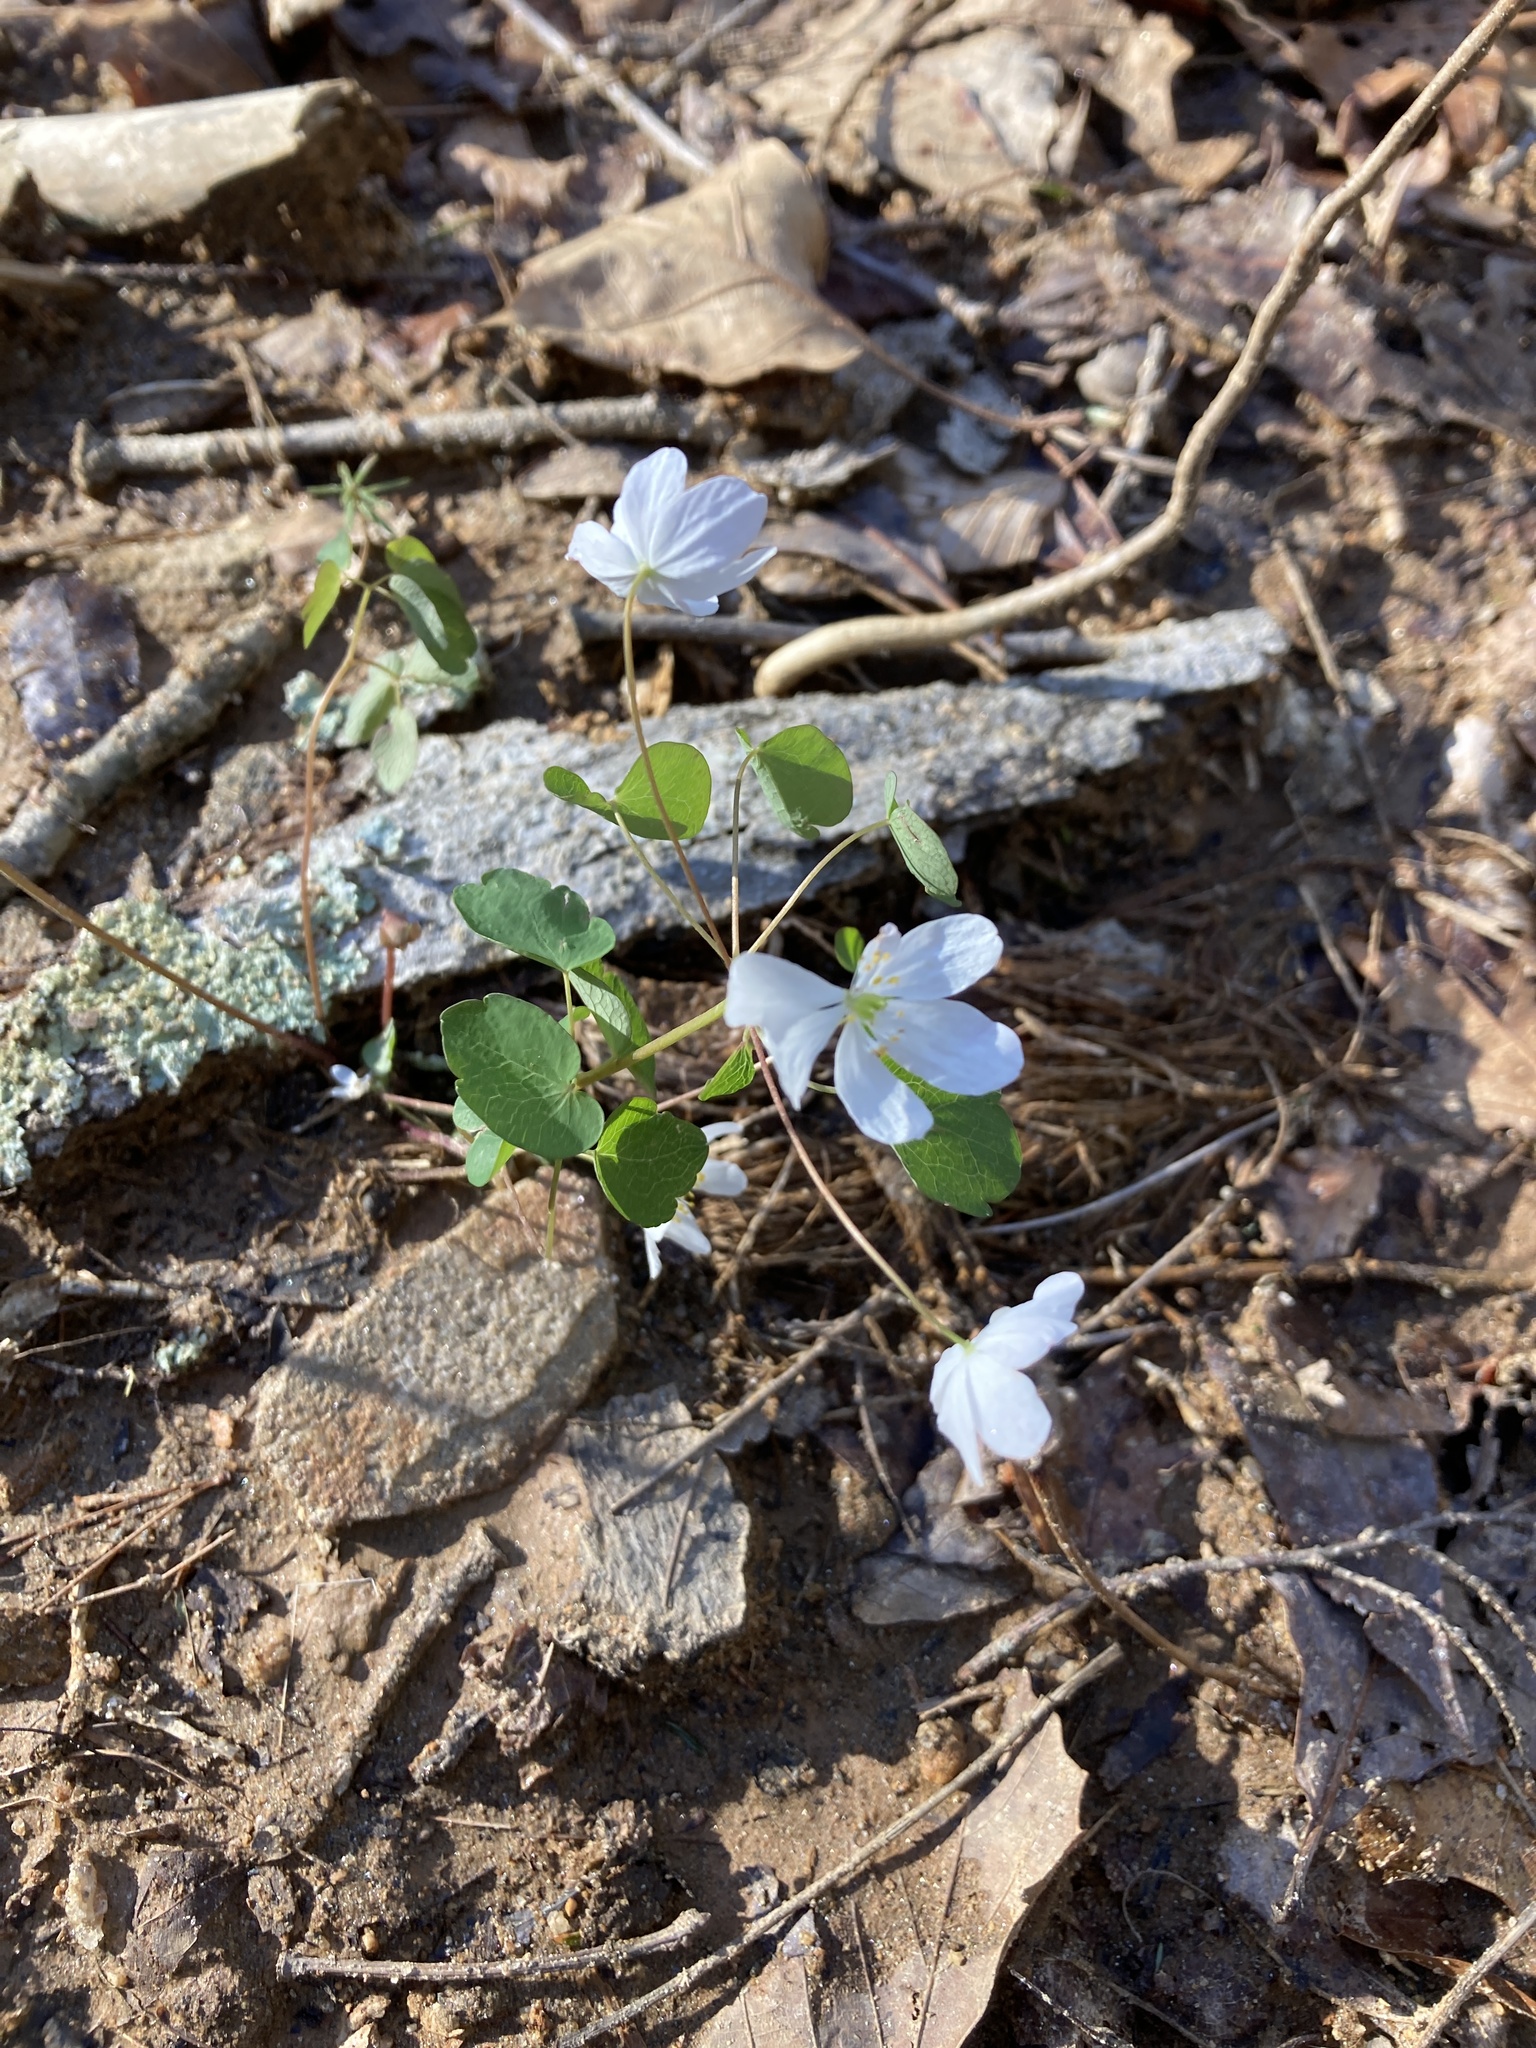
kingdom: Plantae
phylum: Tracheophyta
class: Magnoliopsida
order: Ranunculales
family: Ranunculaceae
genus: Thalictrum
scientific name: Thalictrum thalictroides
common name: Rue-anemone
